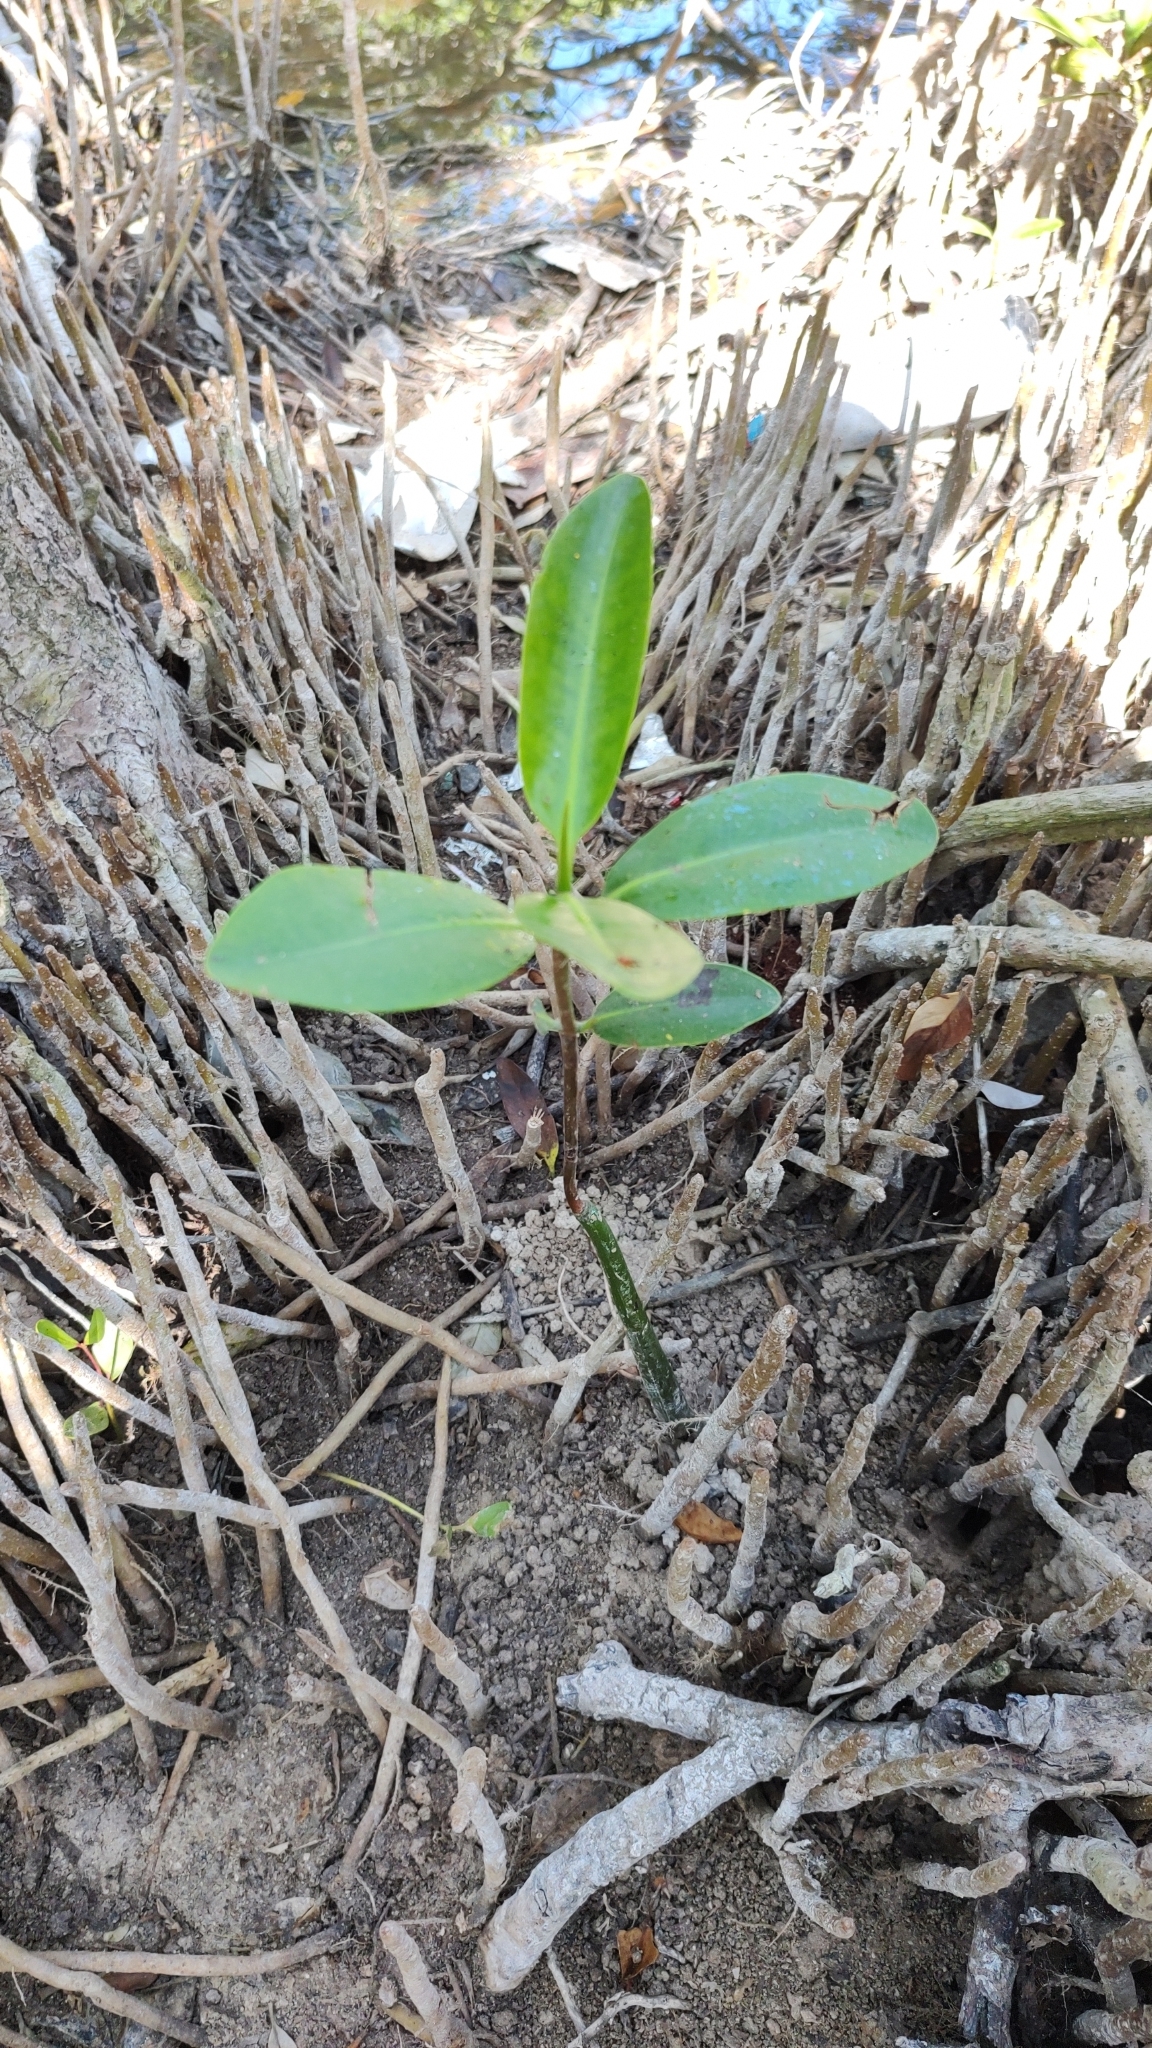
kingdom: Plantae
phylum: Tracheophyta
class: Magnoliopsida
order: Malpighiales
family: Rhizophoraceae
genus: Rhizophora
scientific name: Rhizophora mangle
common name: Red mangrove
